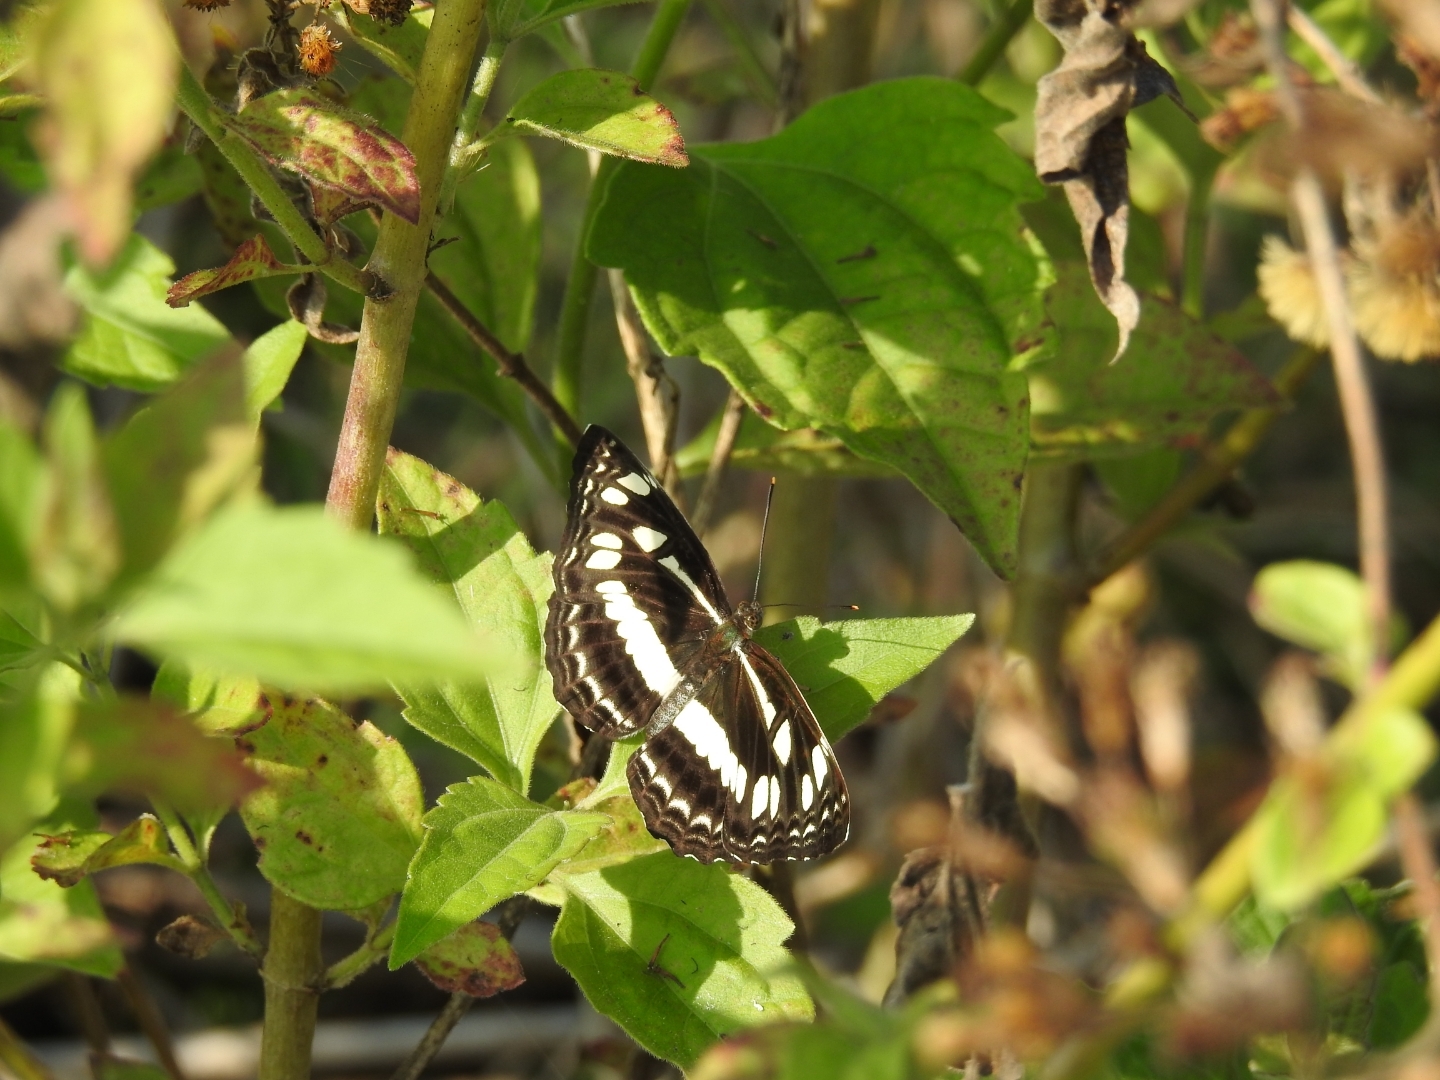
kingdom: Animalia
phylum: Arthropoda
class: Insecta
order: Lepidoptera
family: Nymphalidae
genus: Neptis
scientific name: Neptis jumbah
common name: Chestnut-streaked sailer
